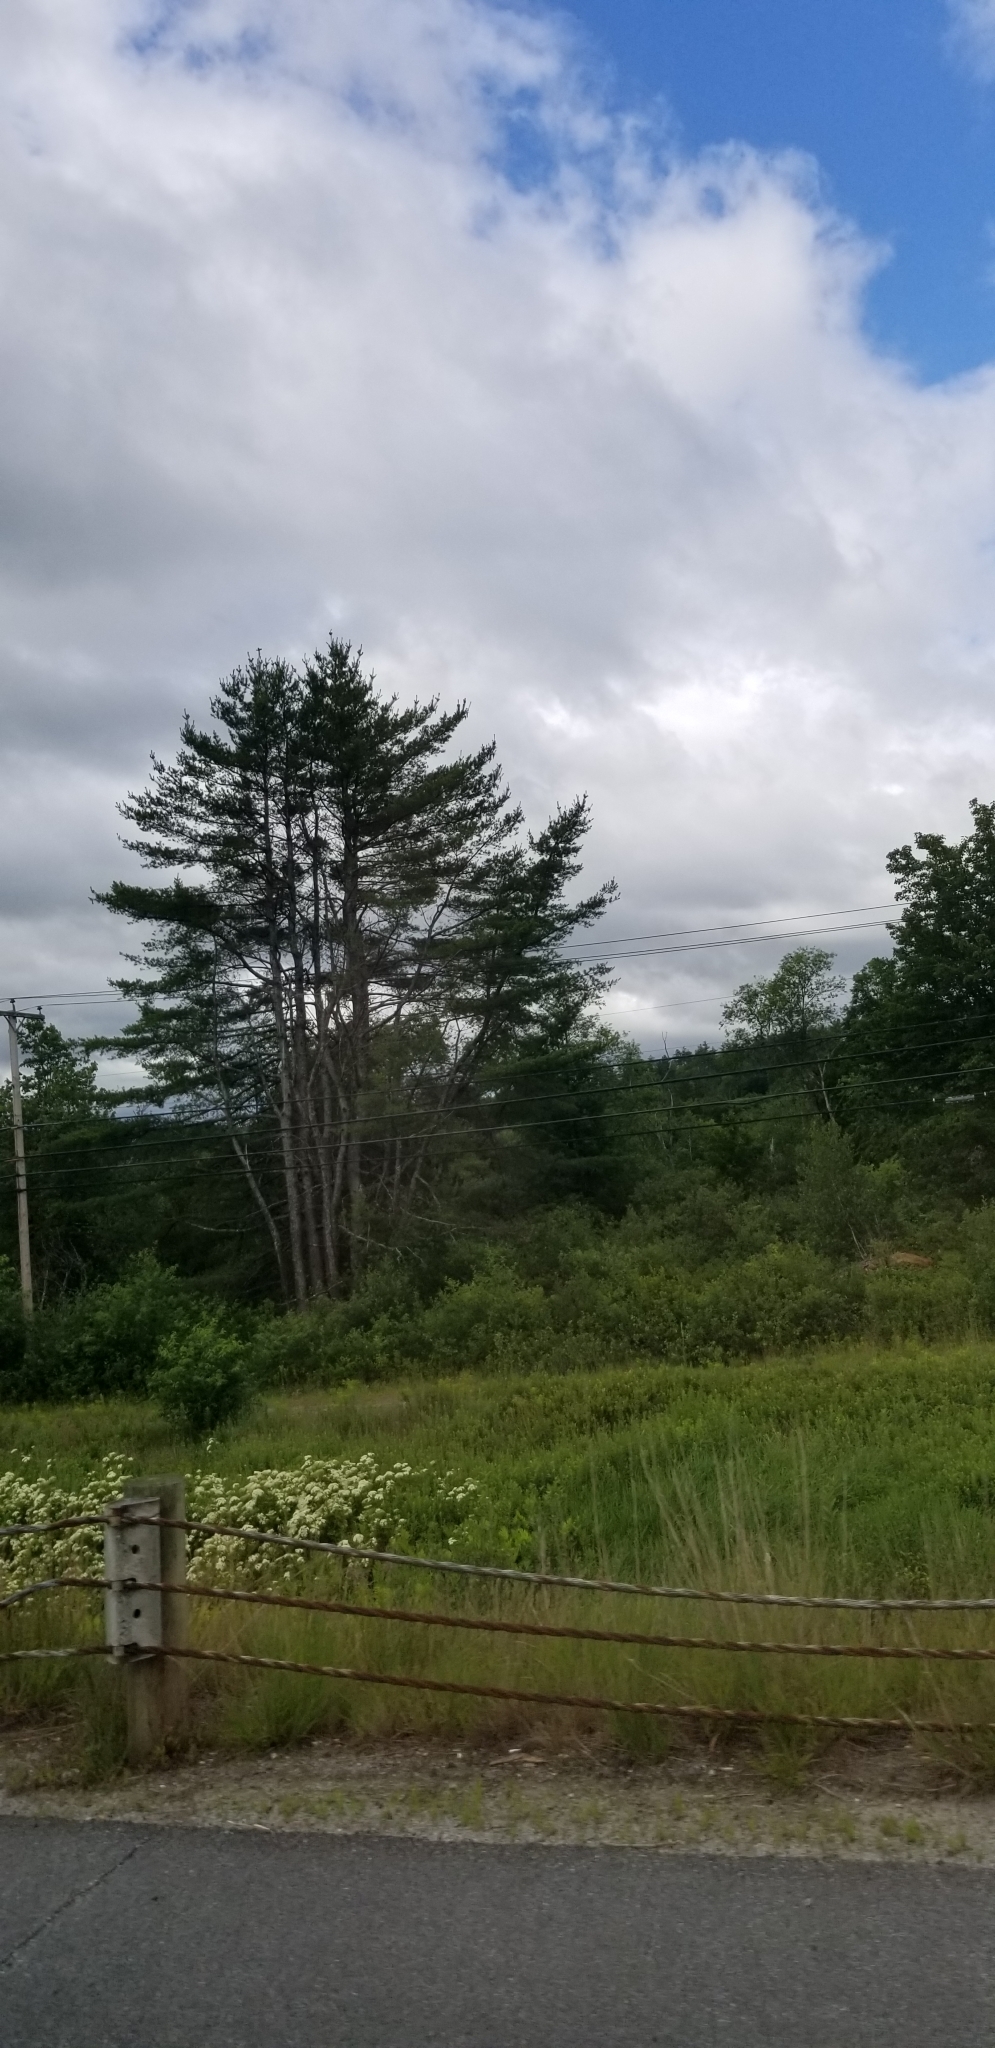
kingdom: Plantae
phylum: Tracheophyta
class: Pinopsida
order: Pinales
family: Pinaceae
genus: Pinus
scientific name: Pinus strobus
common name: Weymouth pine
